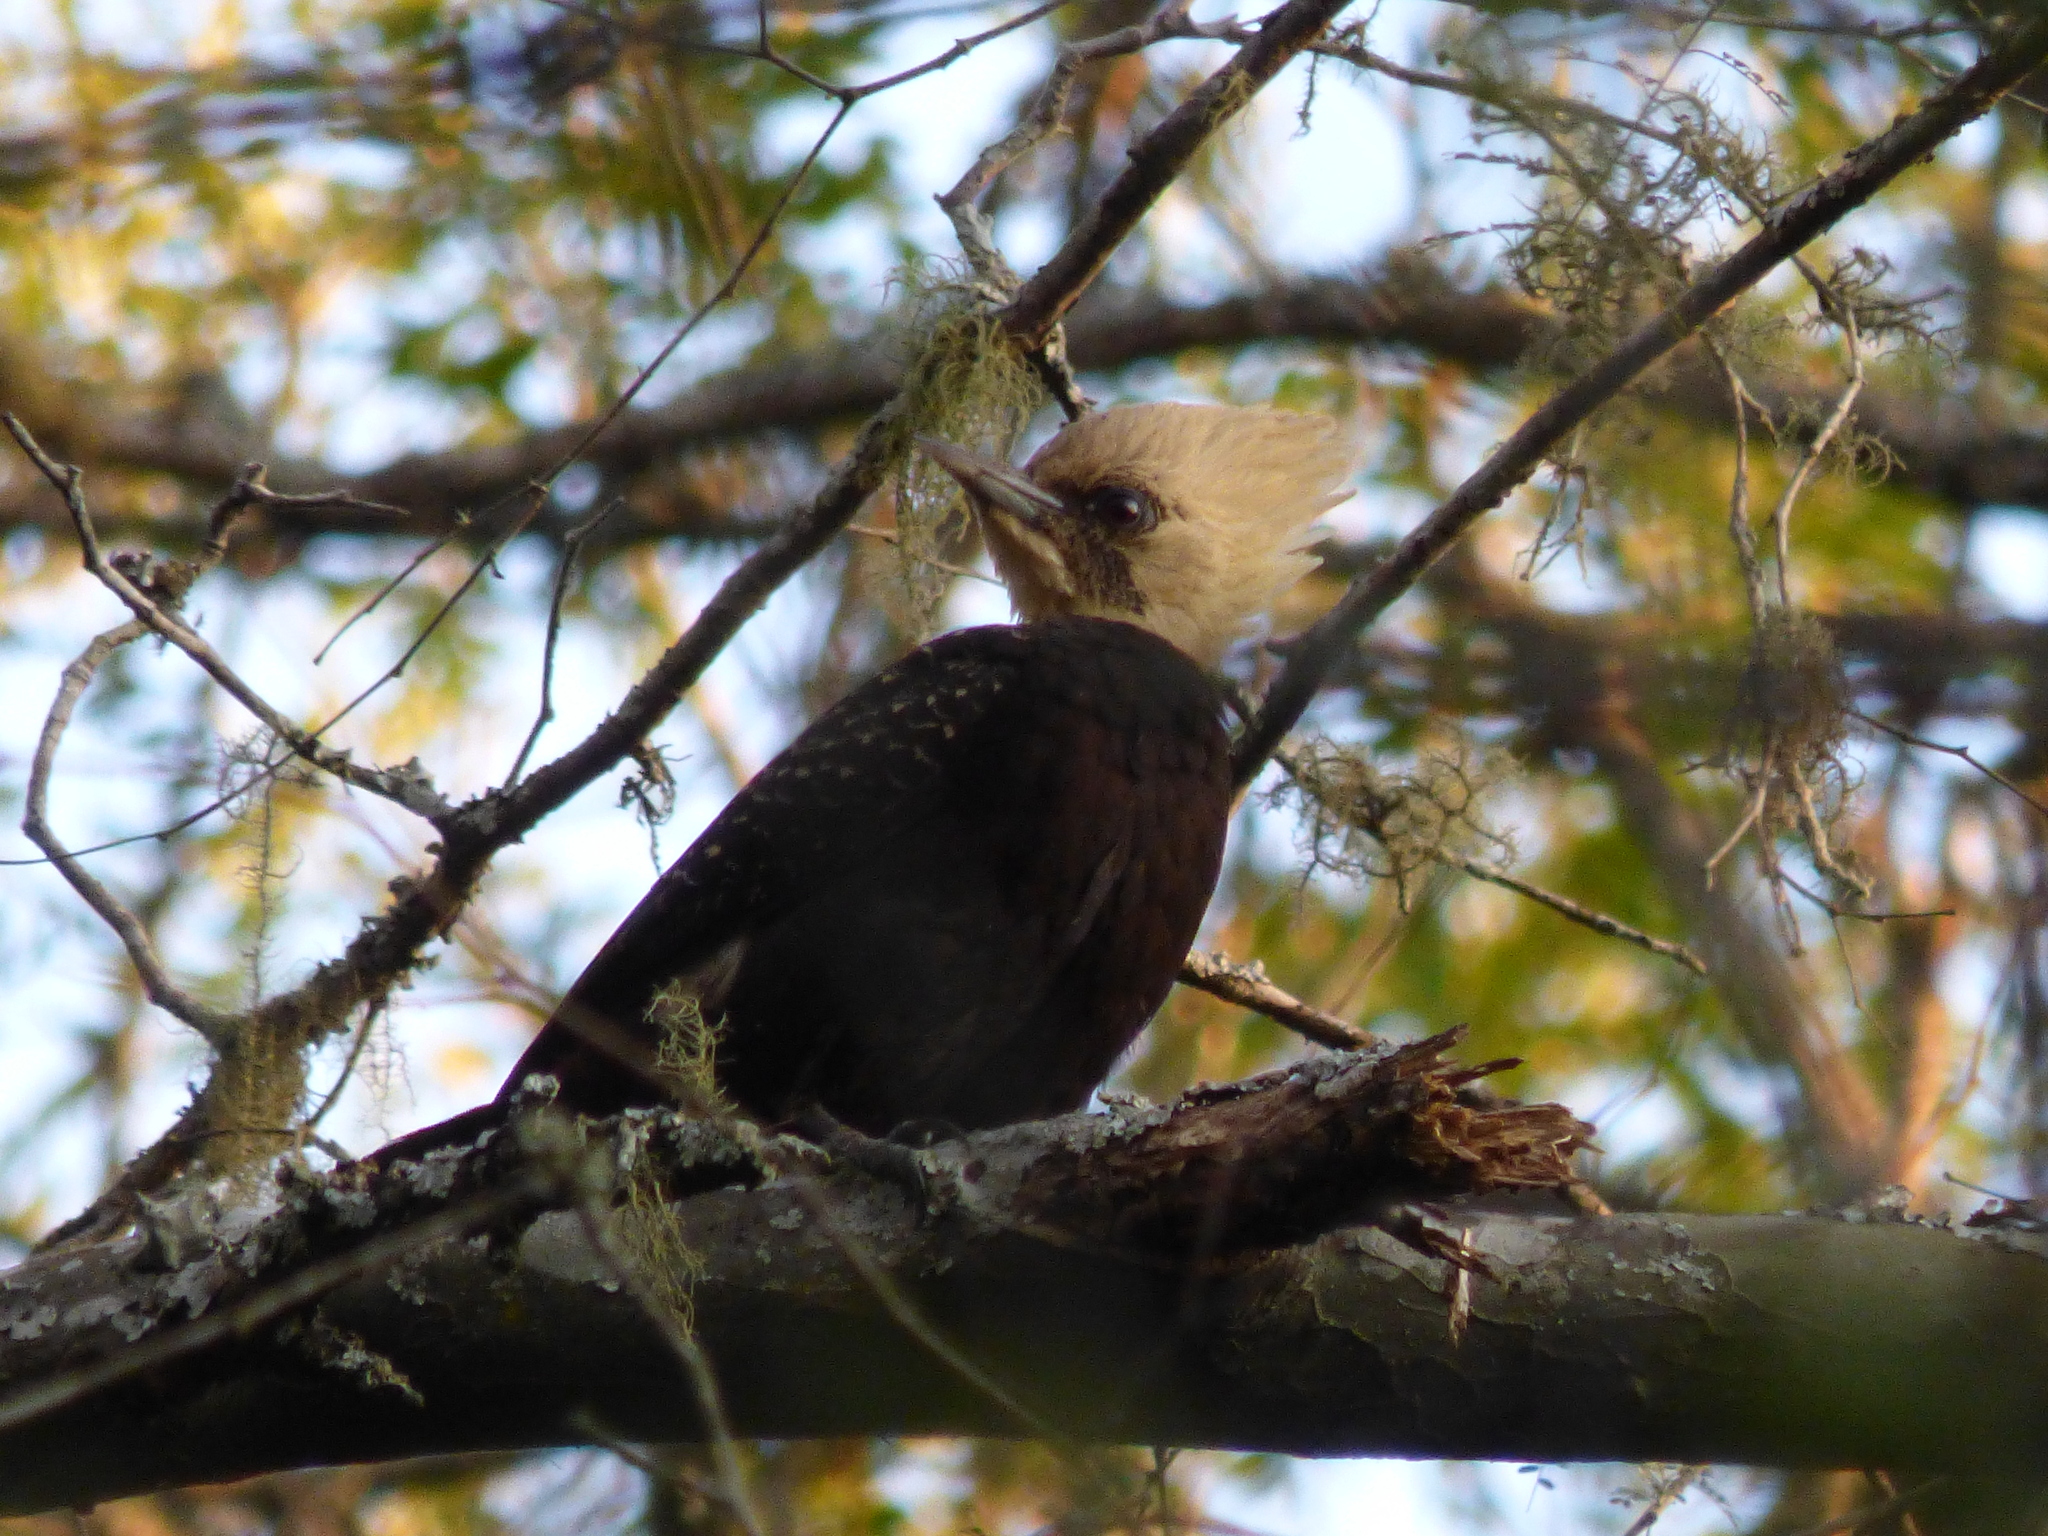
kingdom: Animalia
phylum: Chordata
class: Aves
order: Piciformes
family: Picidae
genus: Celeus
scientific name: Celeus lugubris
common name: Pale-crested woodpecker
